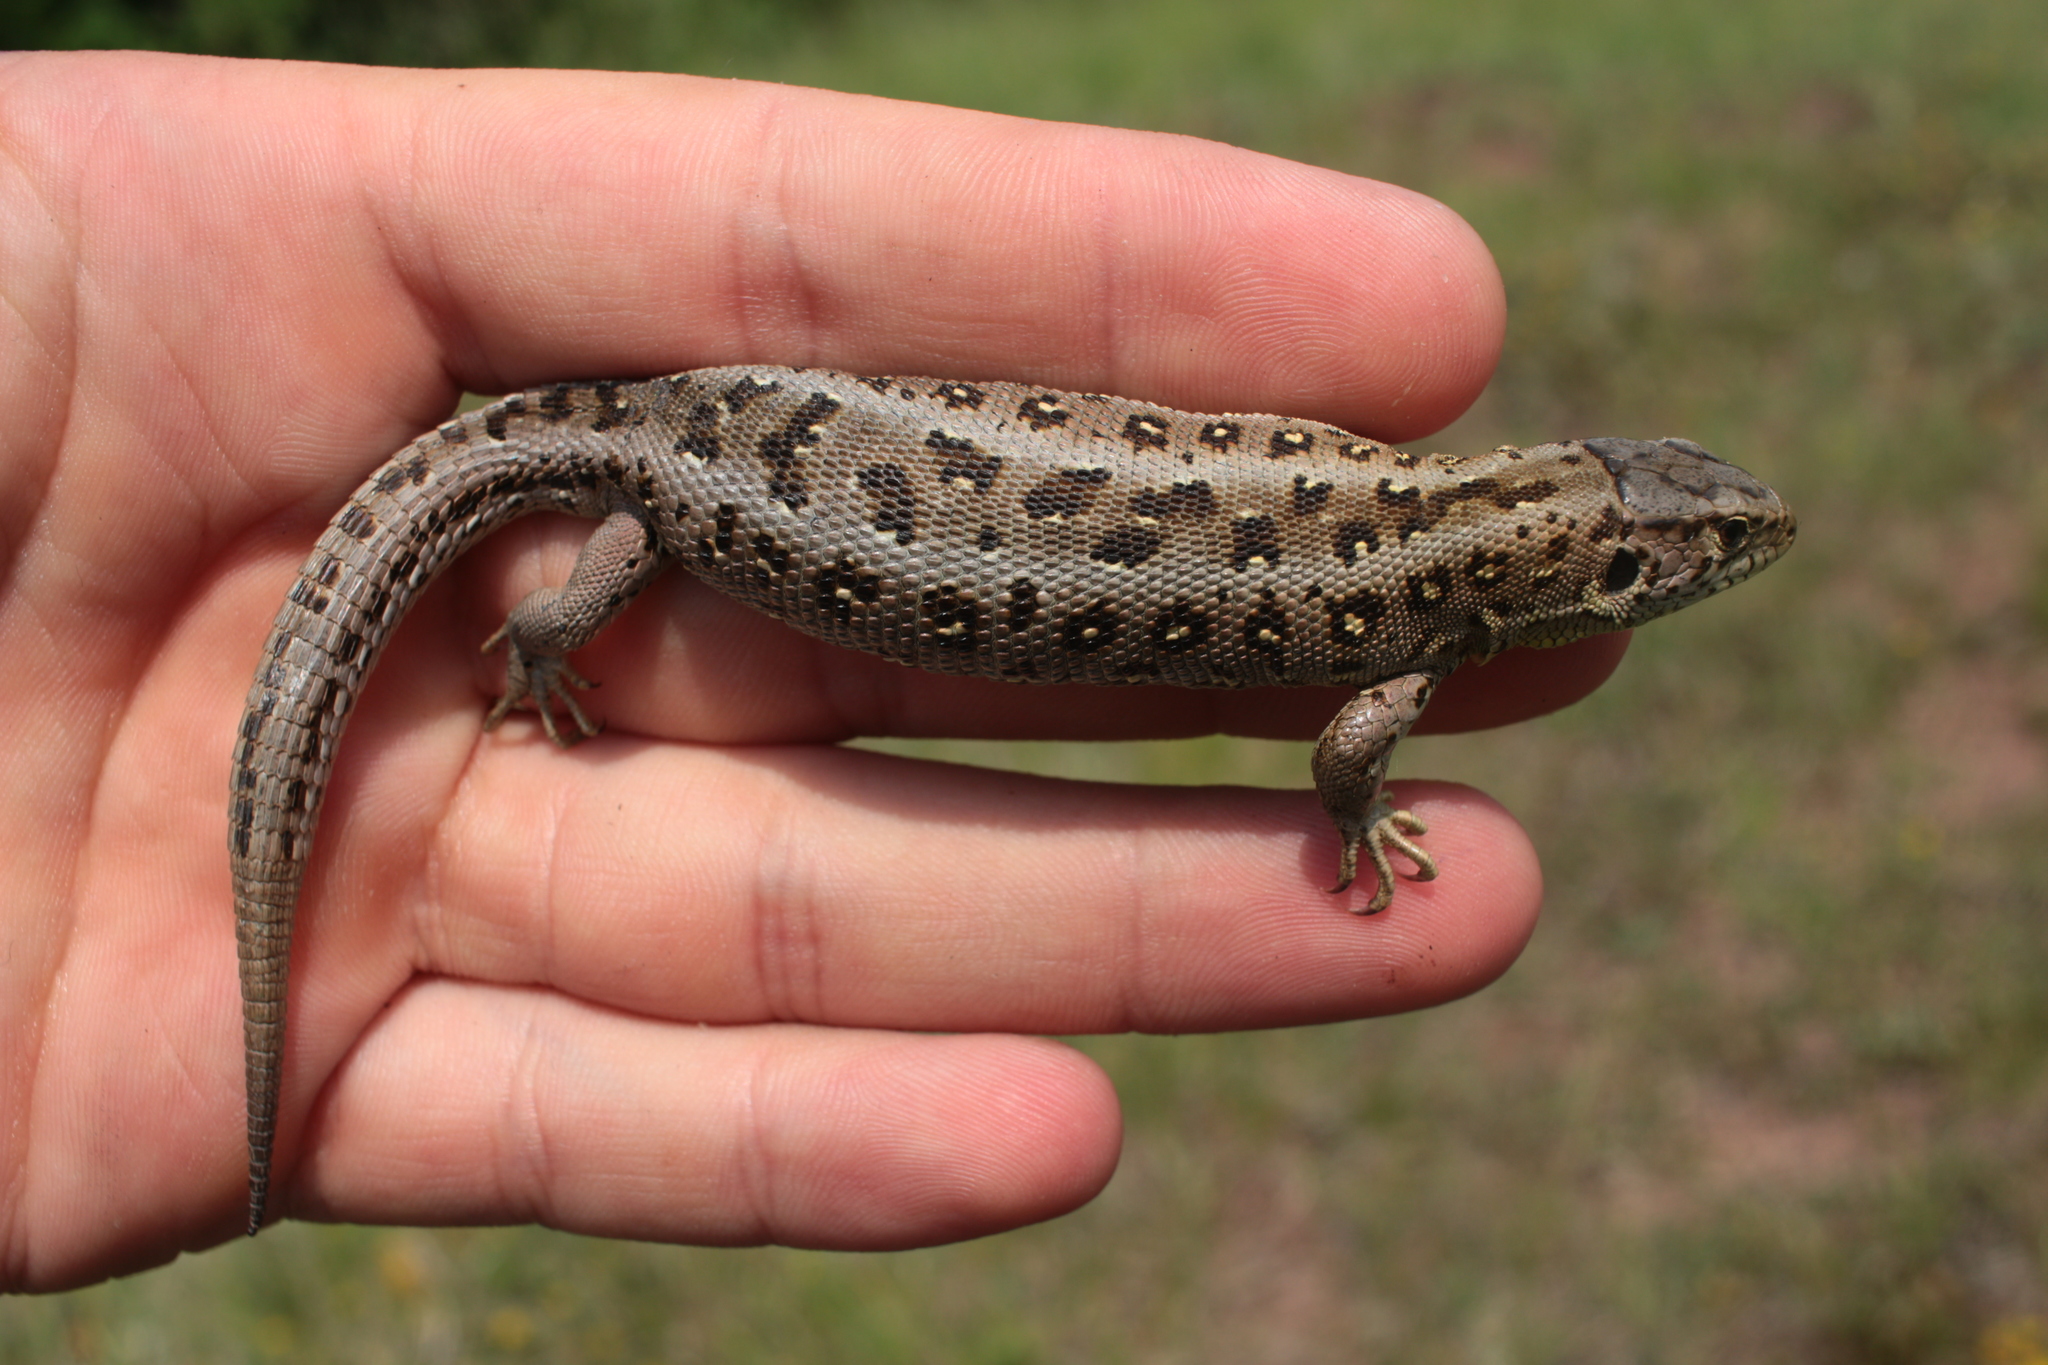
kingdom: Animalia
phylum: Chordata
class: Squamata
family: Lacertidae
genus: Lacerta
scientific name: Lacerta agilis
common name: Sand lizard
